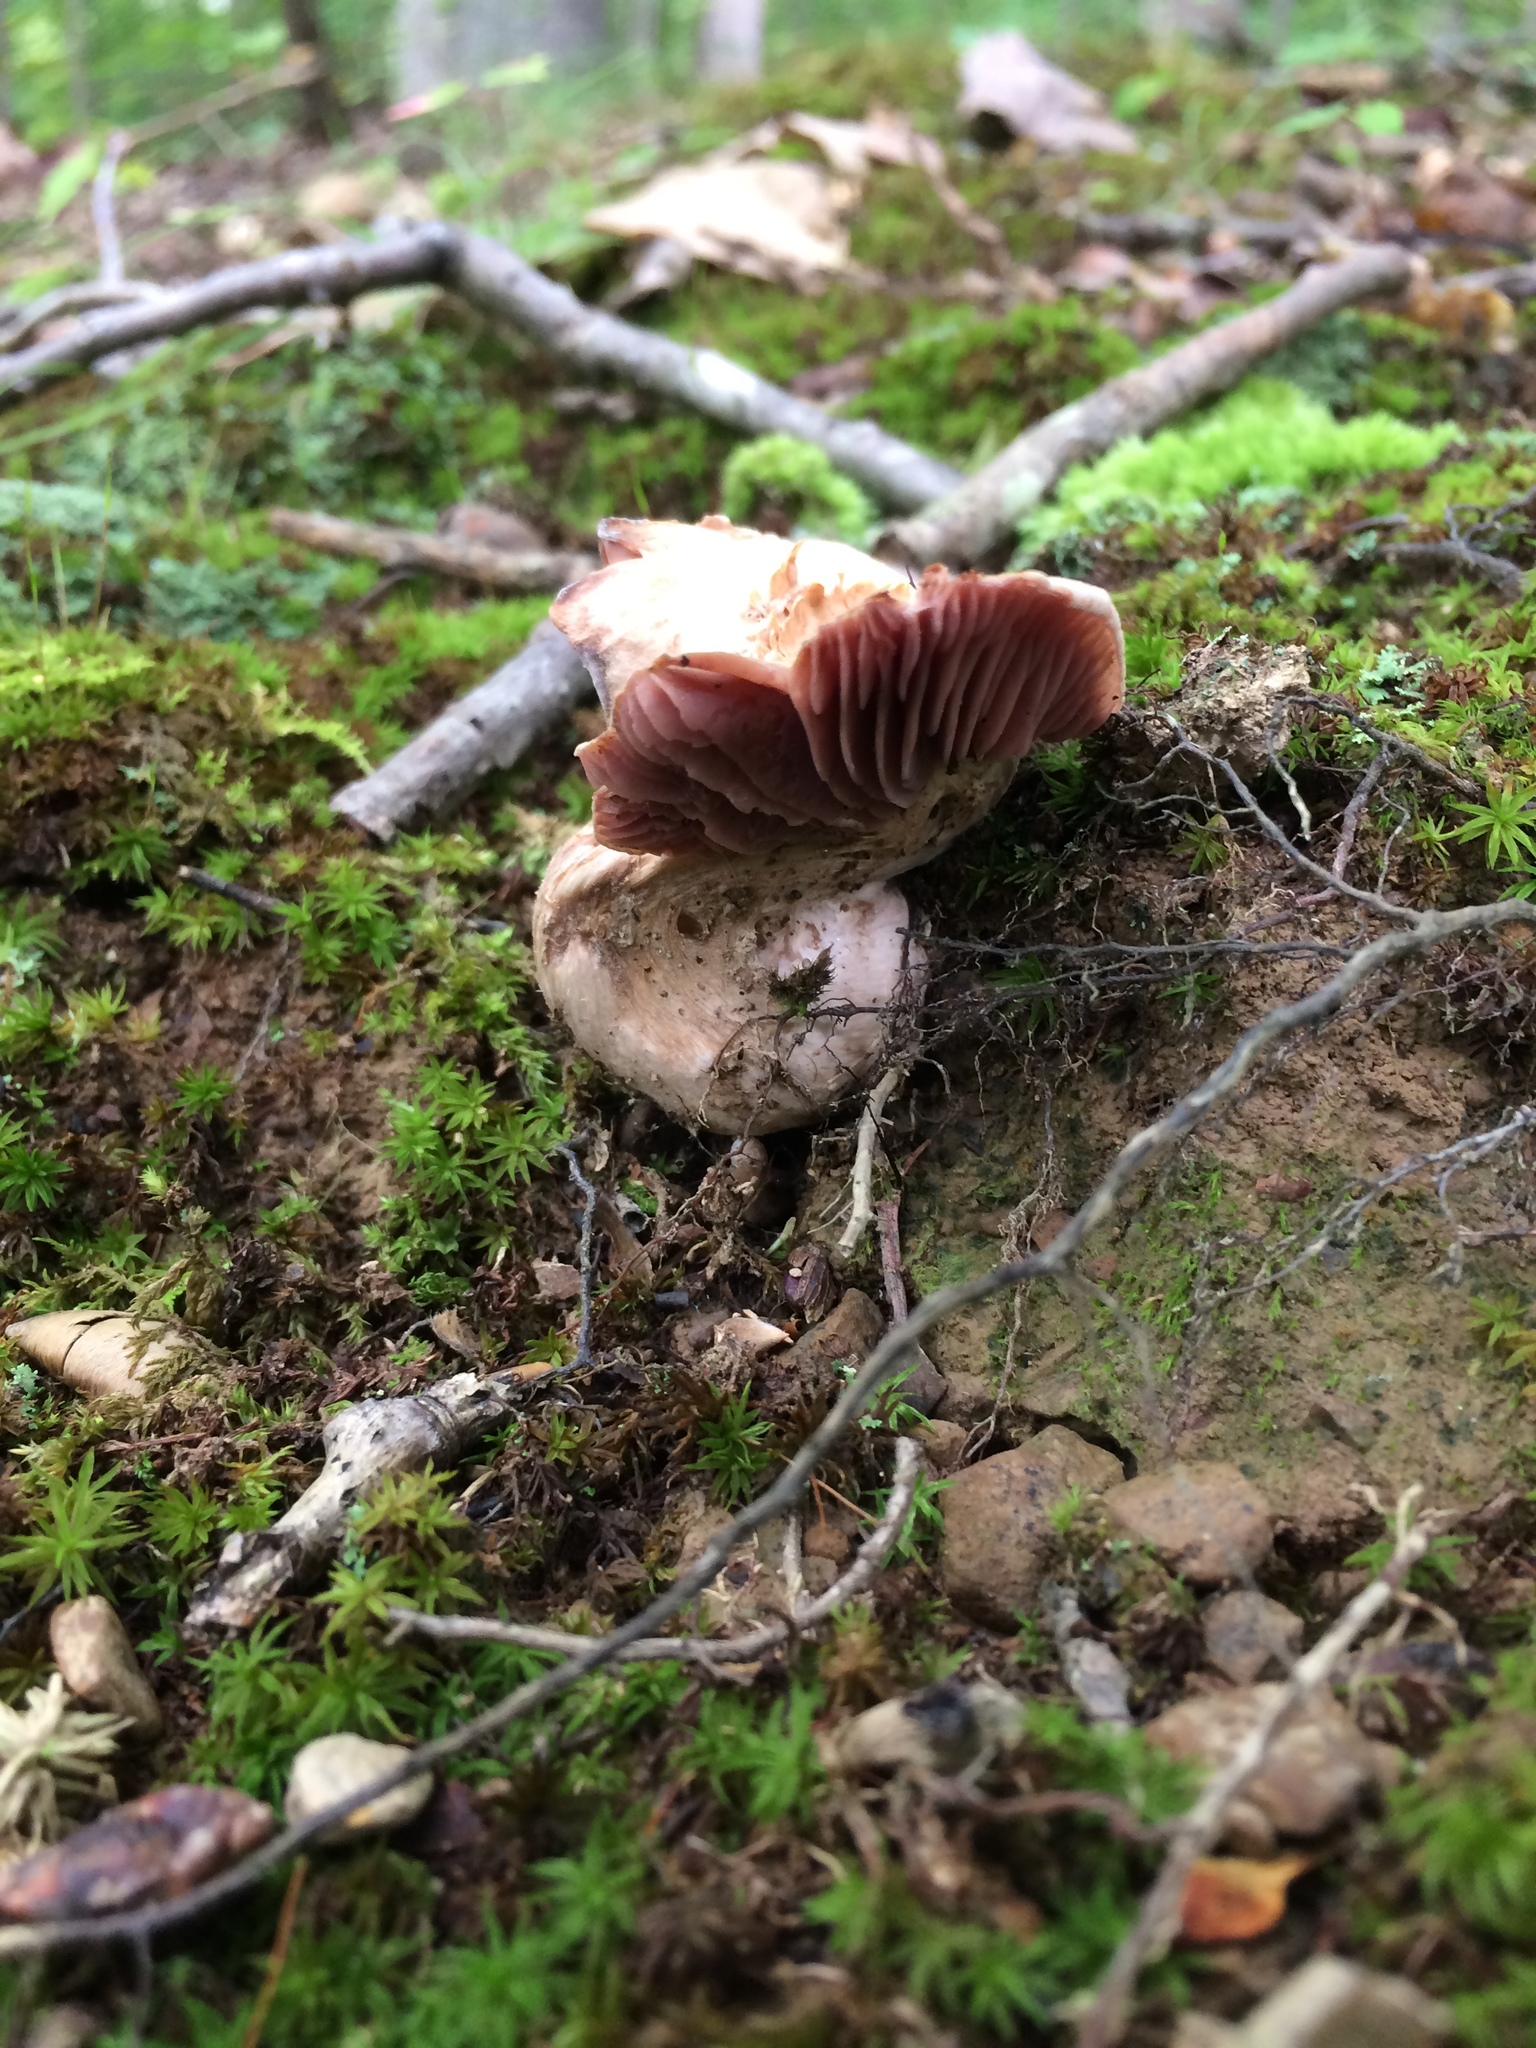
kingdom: Fungi
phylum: Basidiomycota
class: Agaricomycetes
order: Agaricales
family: Hydnangiaceae
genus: Laccaria
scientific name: Laccaria ochropurpurea
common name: Purple laccaria
